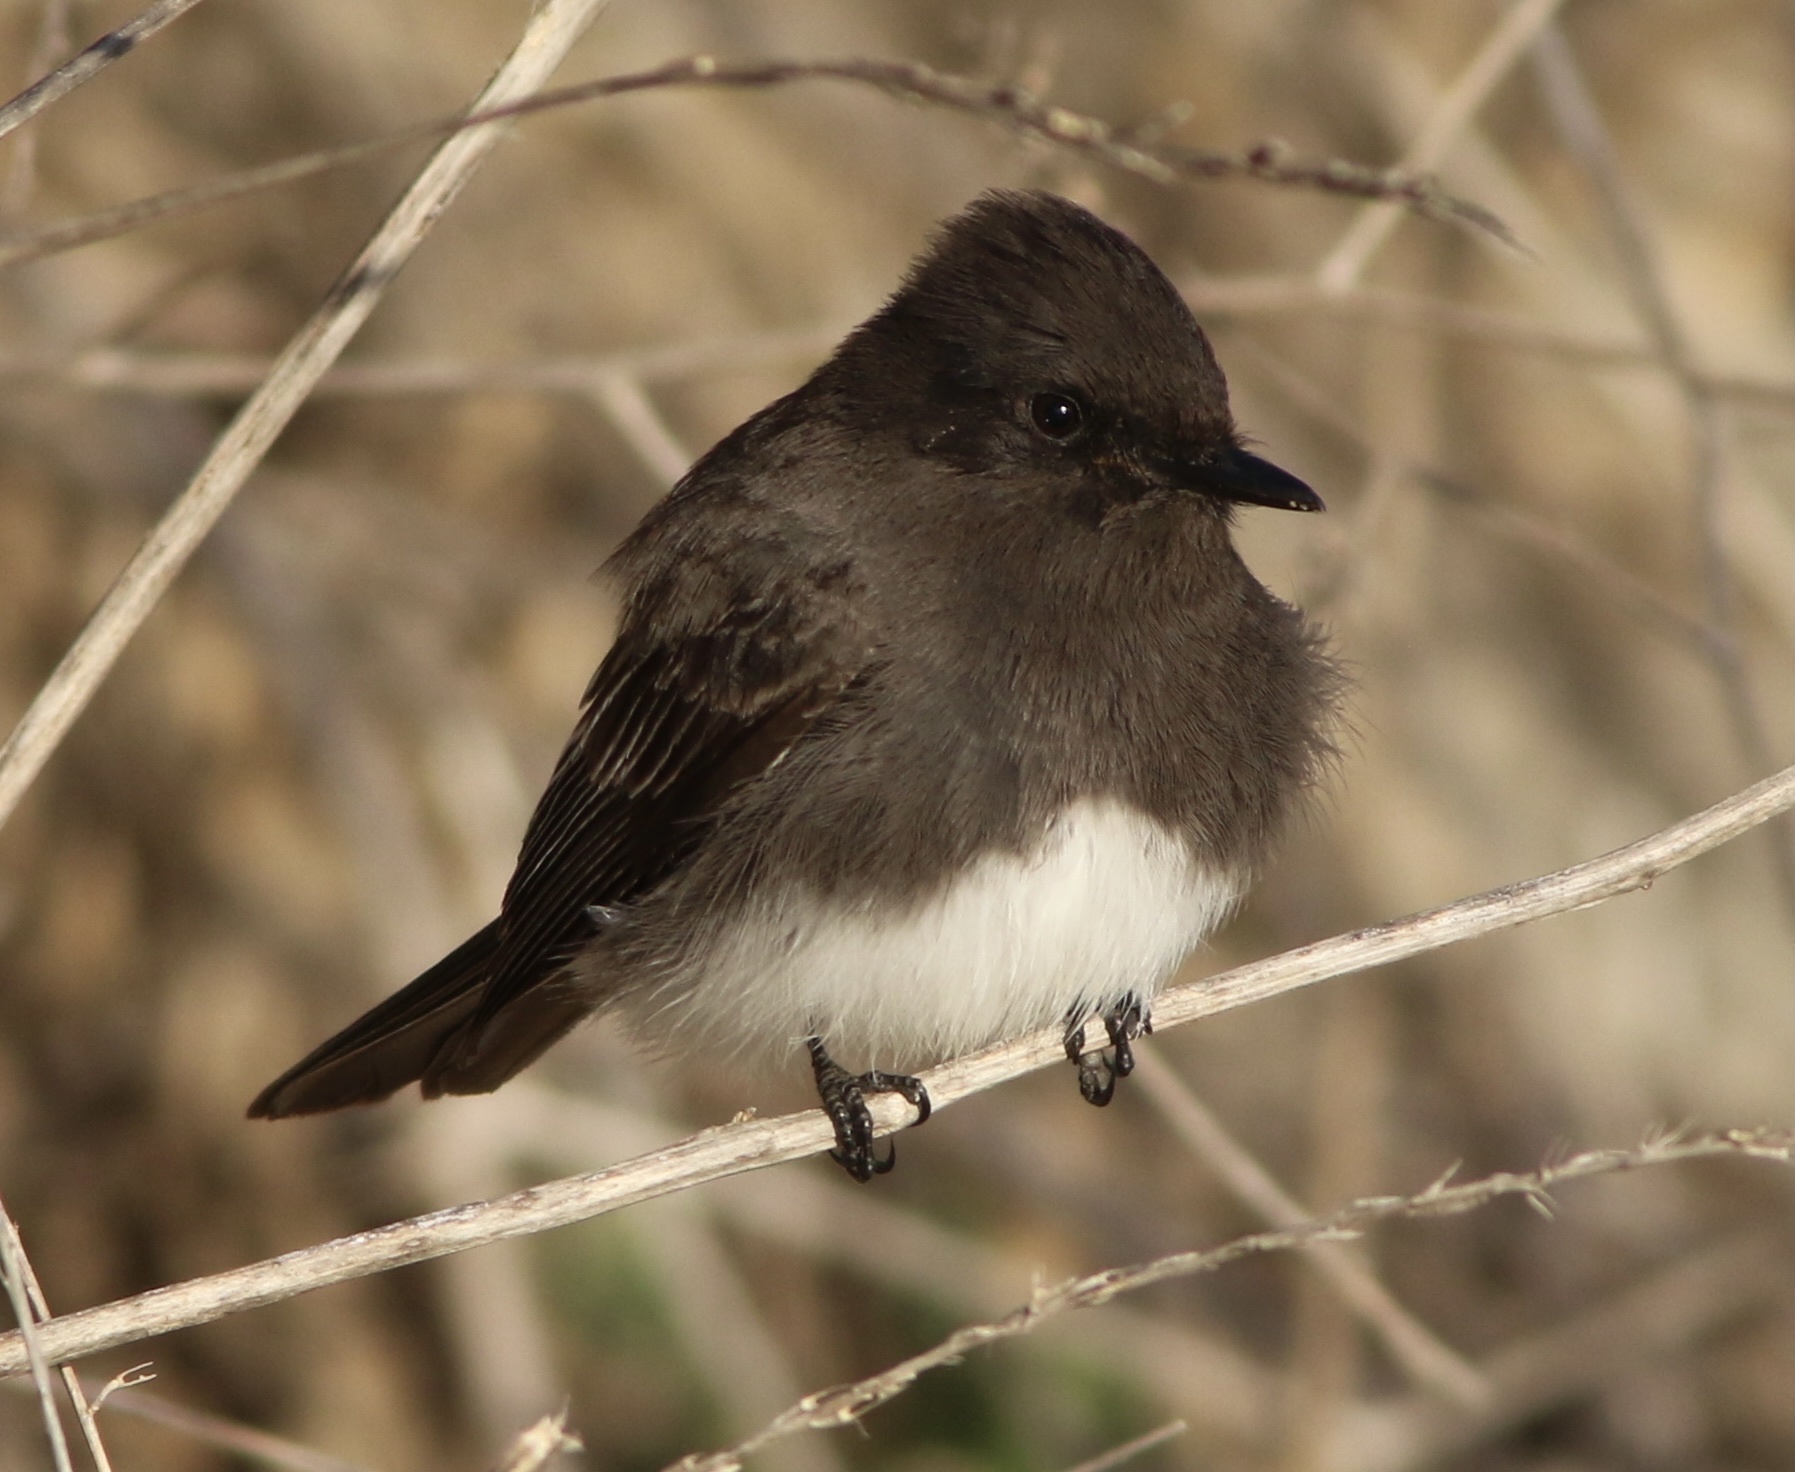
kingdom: Animalia
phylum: Chordata
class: Aves
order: Passeriformes
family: Tyrannidae
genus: Sayornis
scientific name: Sayornis nigricans
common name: Black phoebe
